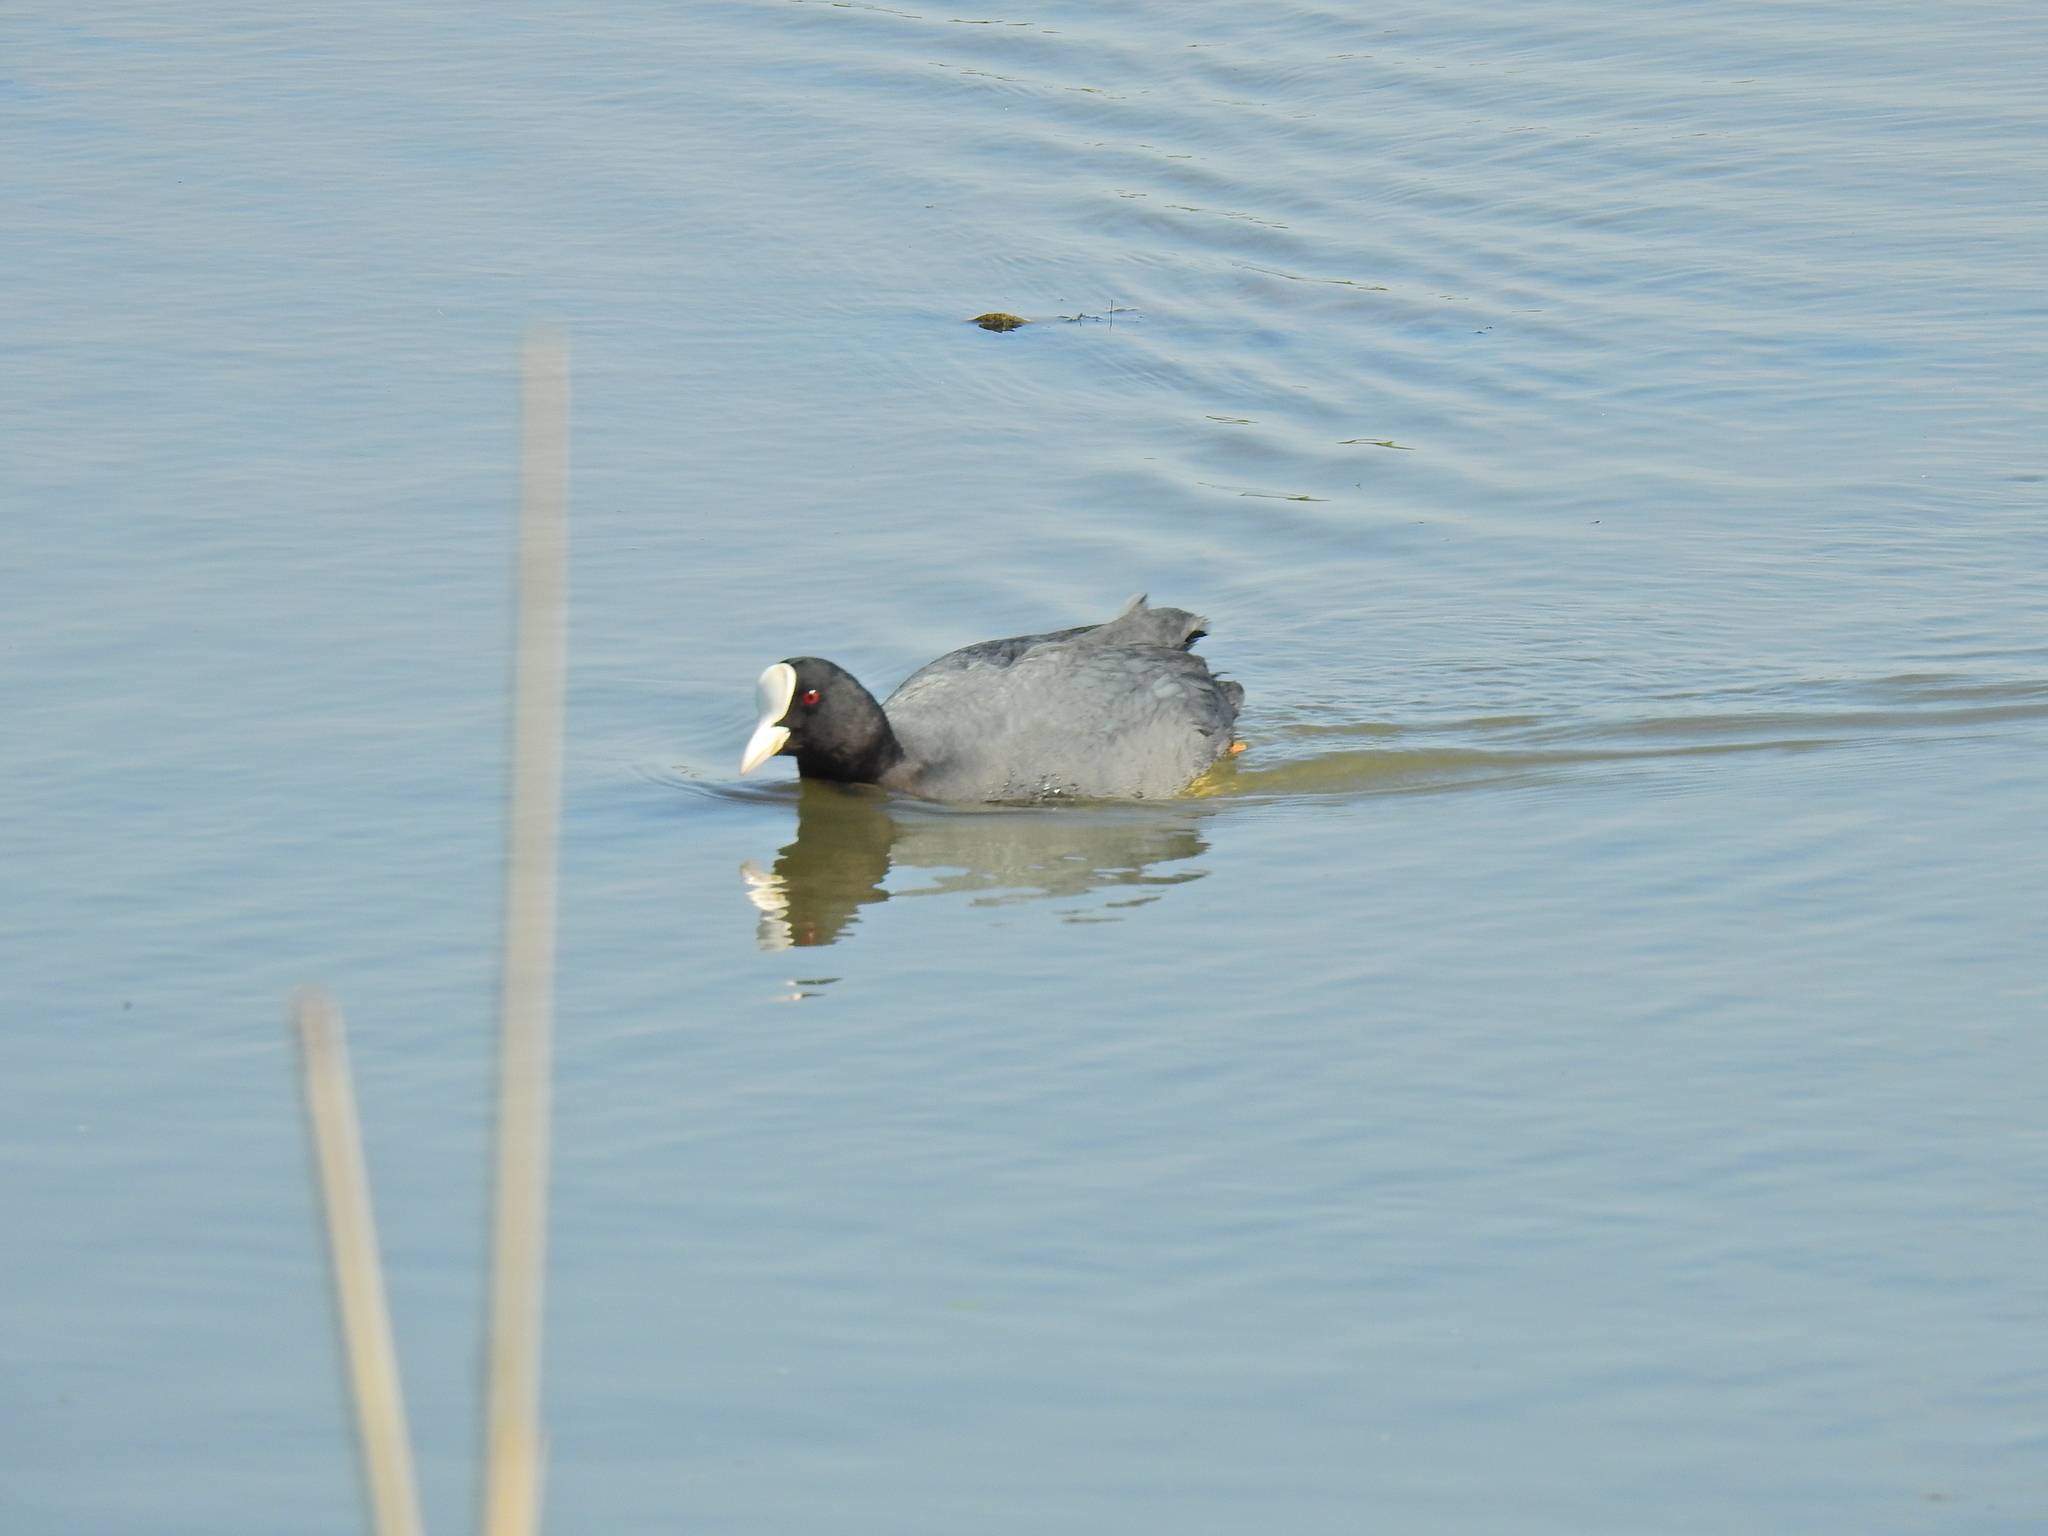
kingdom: Animalia
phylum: Chordata
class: Aves
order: Gruiformes
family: Rallidae
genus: Fulica
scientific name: Fulica atra
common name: Eurasian coot
